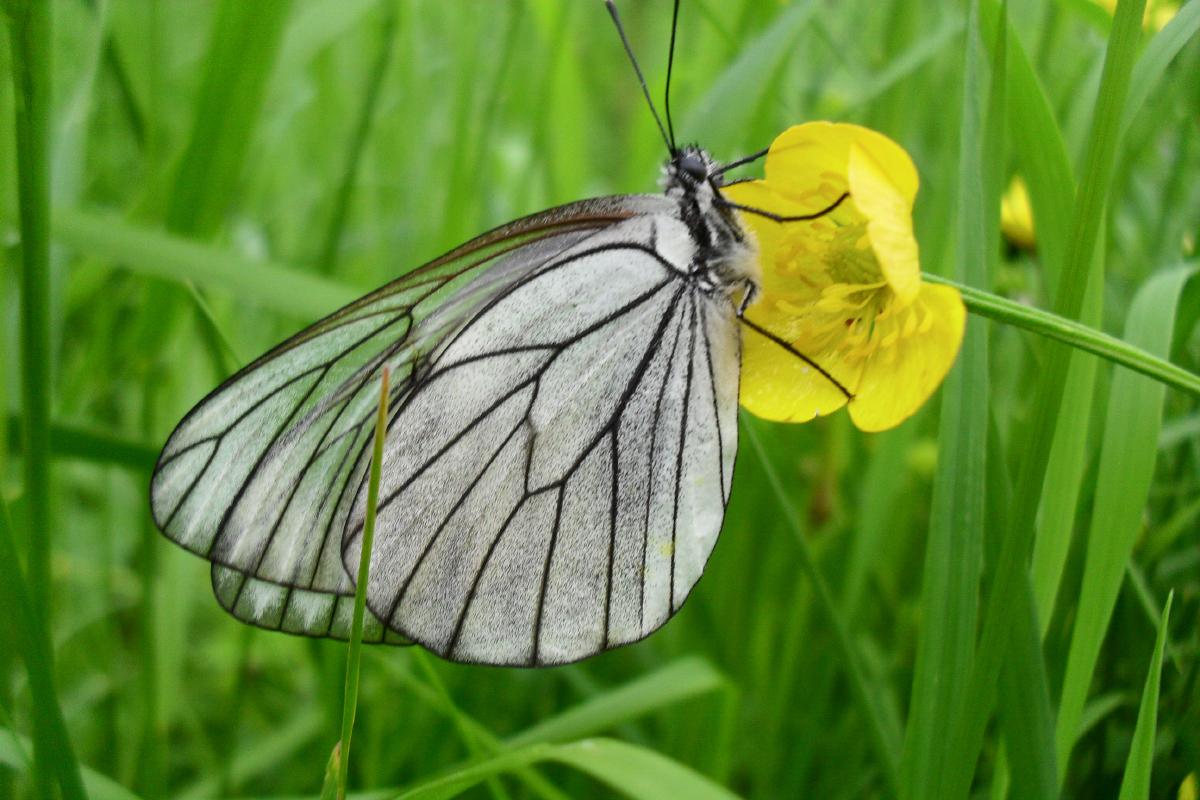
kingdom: Animalia
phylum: Arthropoda
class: Insecta
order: Lepidoptera
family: Pieridae
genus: Aporia
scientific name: Aporia crataegi
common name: Black-veined white
